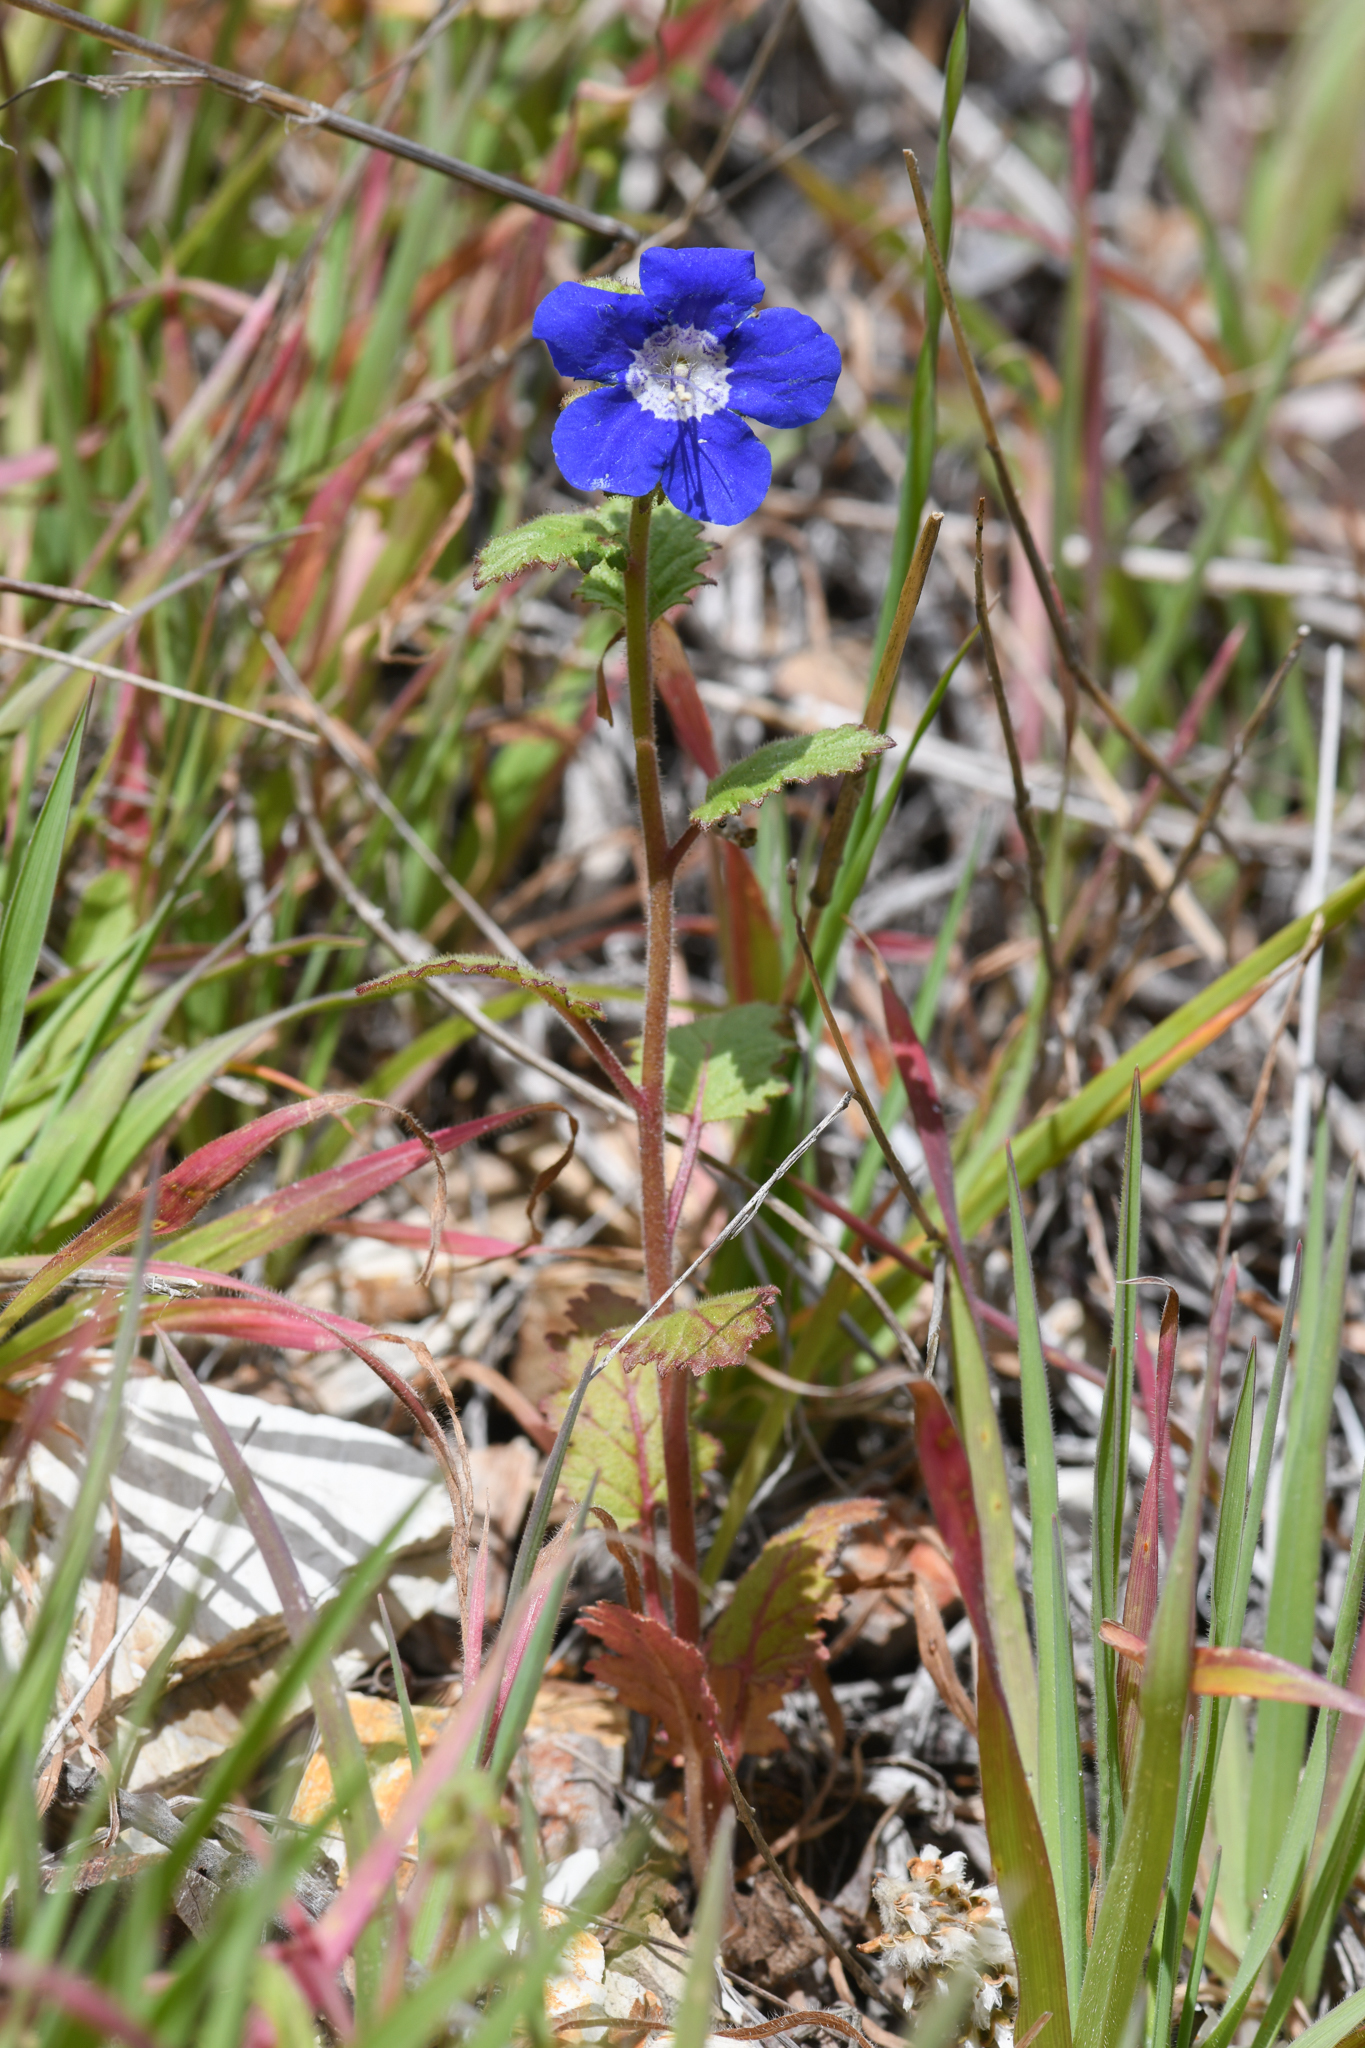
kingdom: Plantae
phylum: Tracheophyta
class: Magnoliopsida
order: Boraginales
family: Hydrophyllaceae
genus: Phacelia
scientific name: Phacelia viscida
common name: Sticky phacelia
